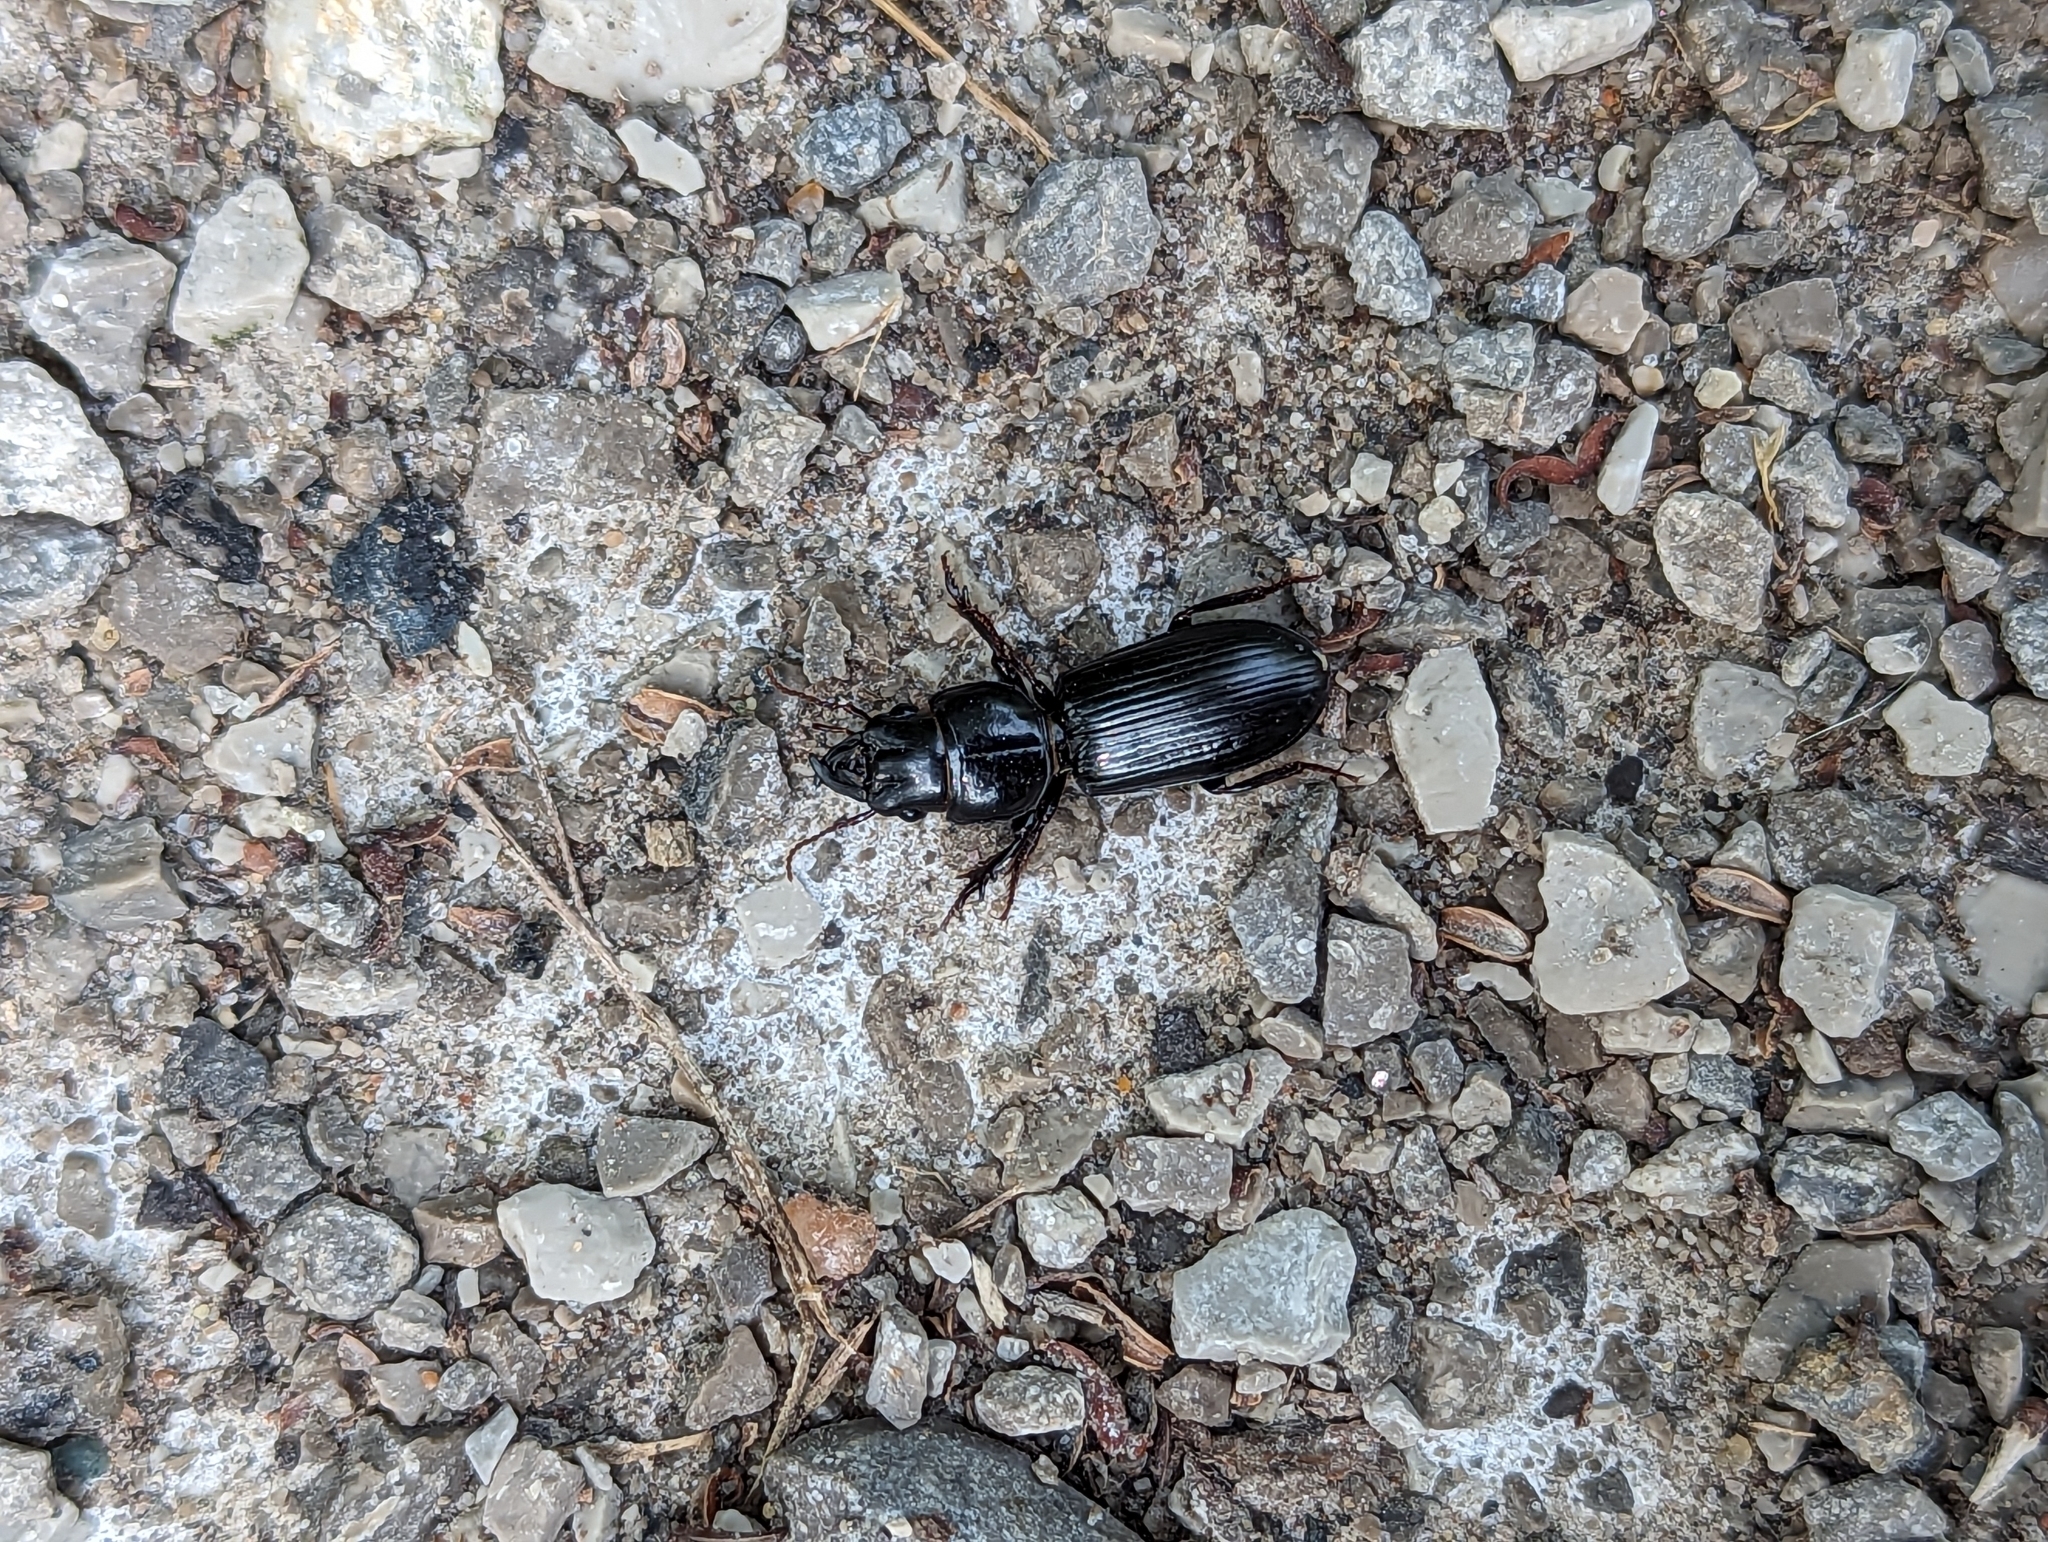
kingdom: Animalia
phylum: Arthropoda
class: Insecta
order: Coleoptera
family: Carabidae
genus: Scarites
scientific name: Scarites subterraneus
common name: Big-headed ground beetle
